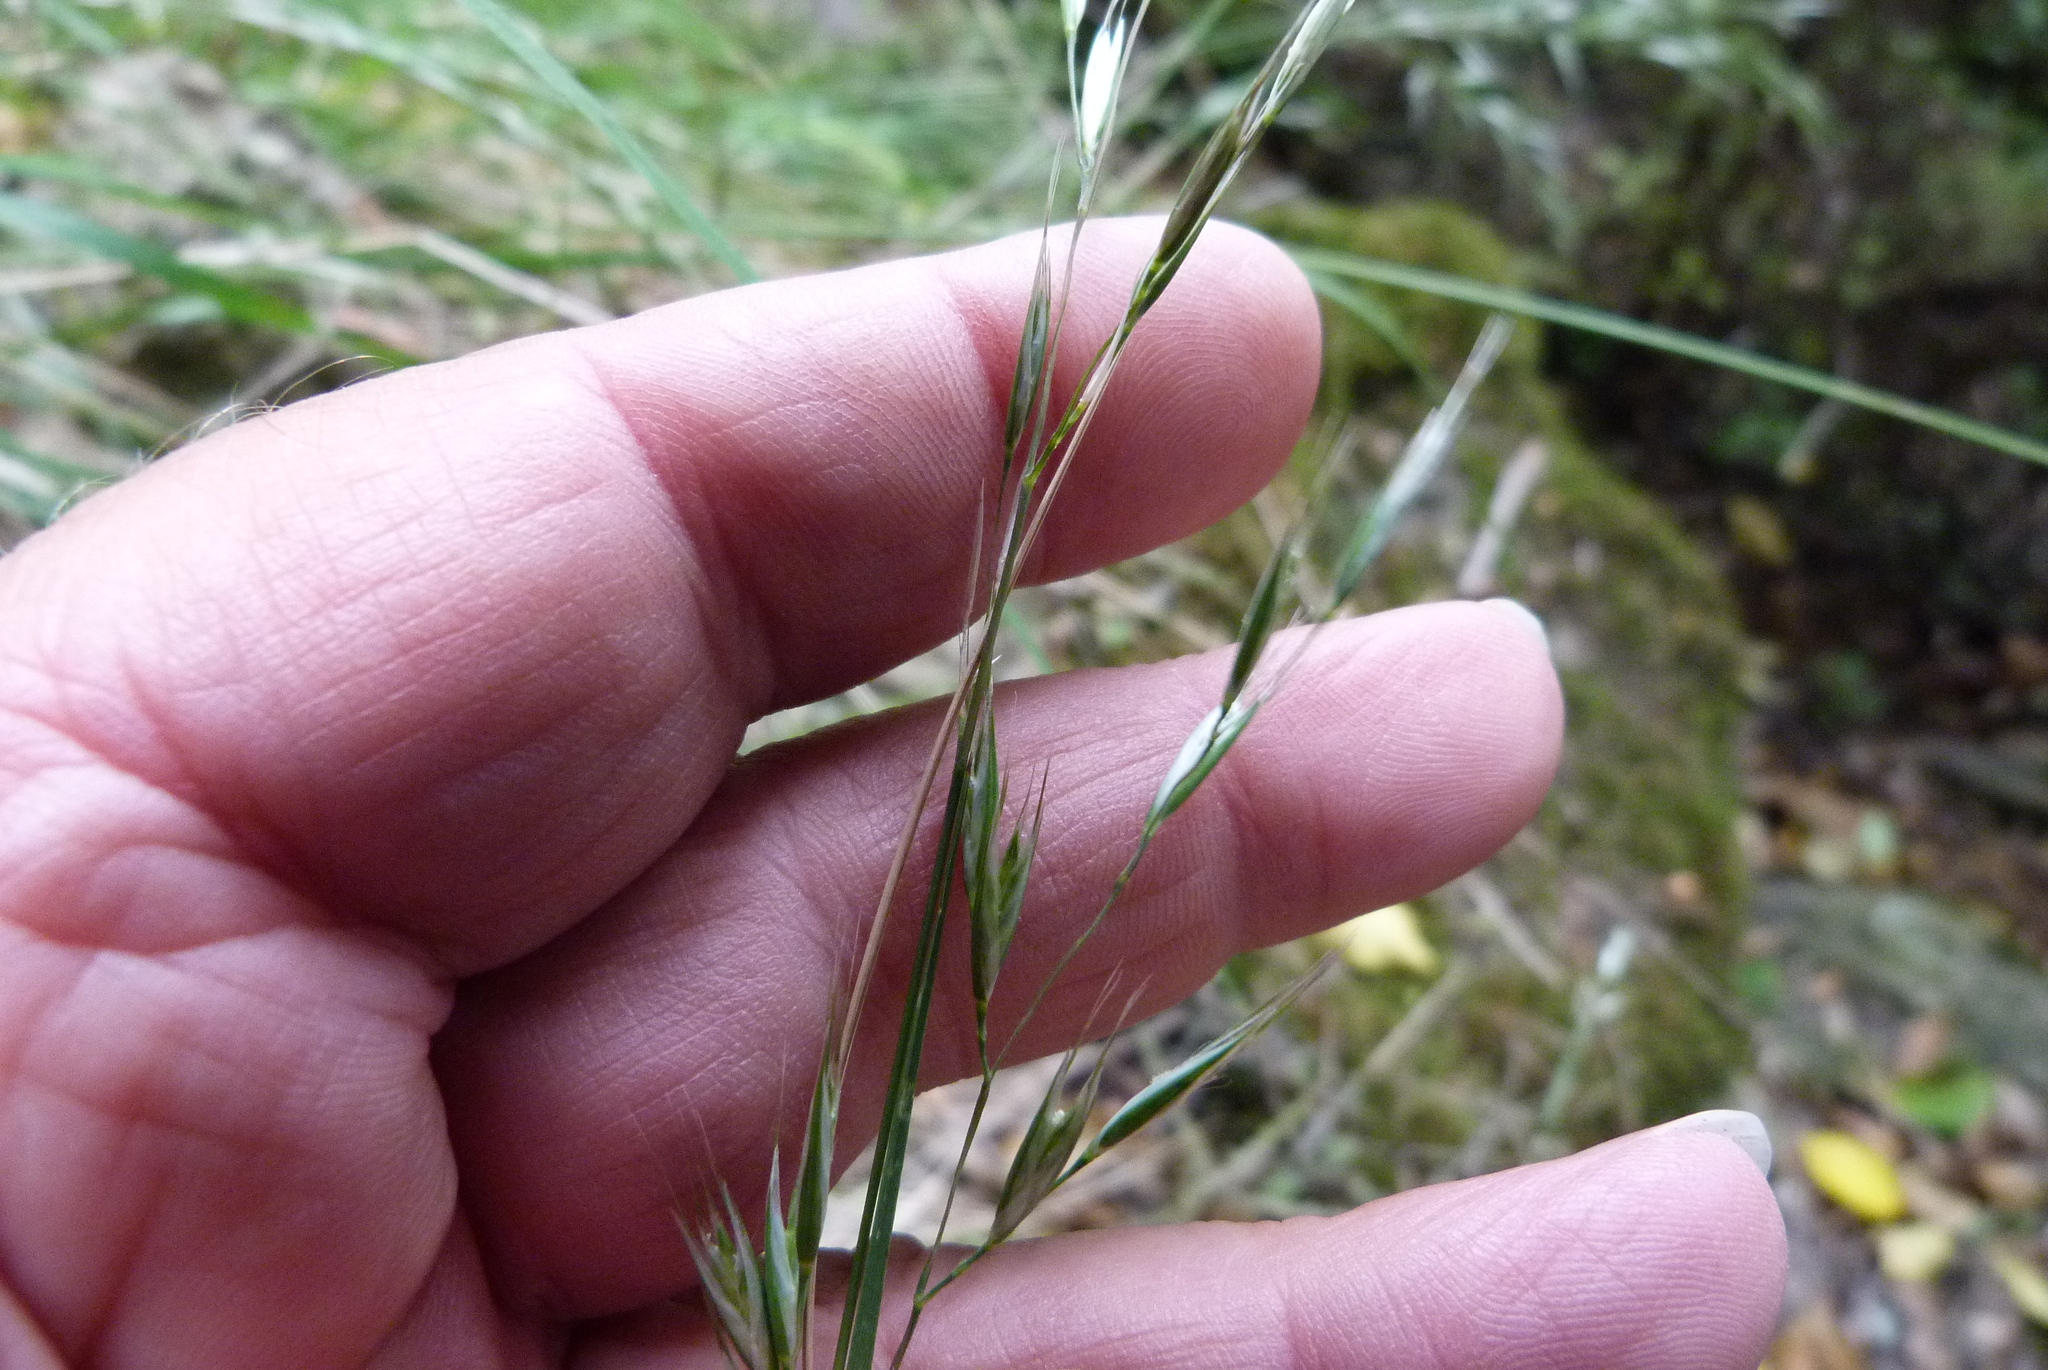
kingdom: Plantae
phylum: Tracheophyta
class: Liliopsida
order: Poales
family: Poaceae
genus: Rytidosperma
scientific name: Rytidosperma gracile
